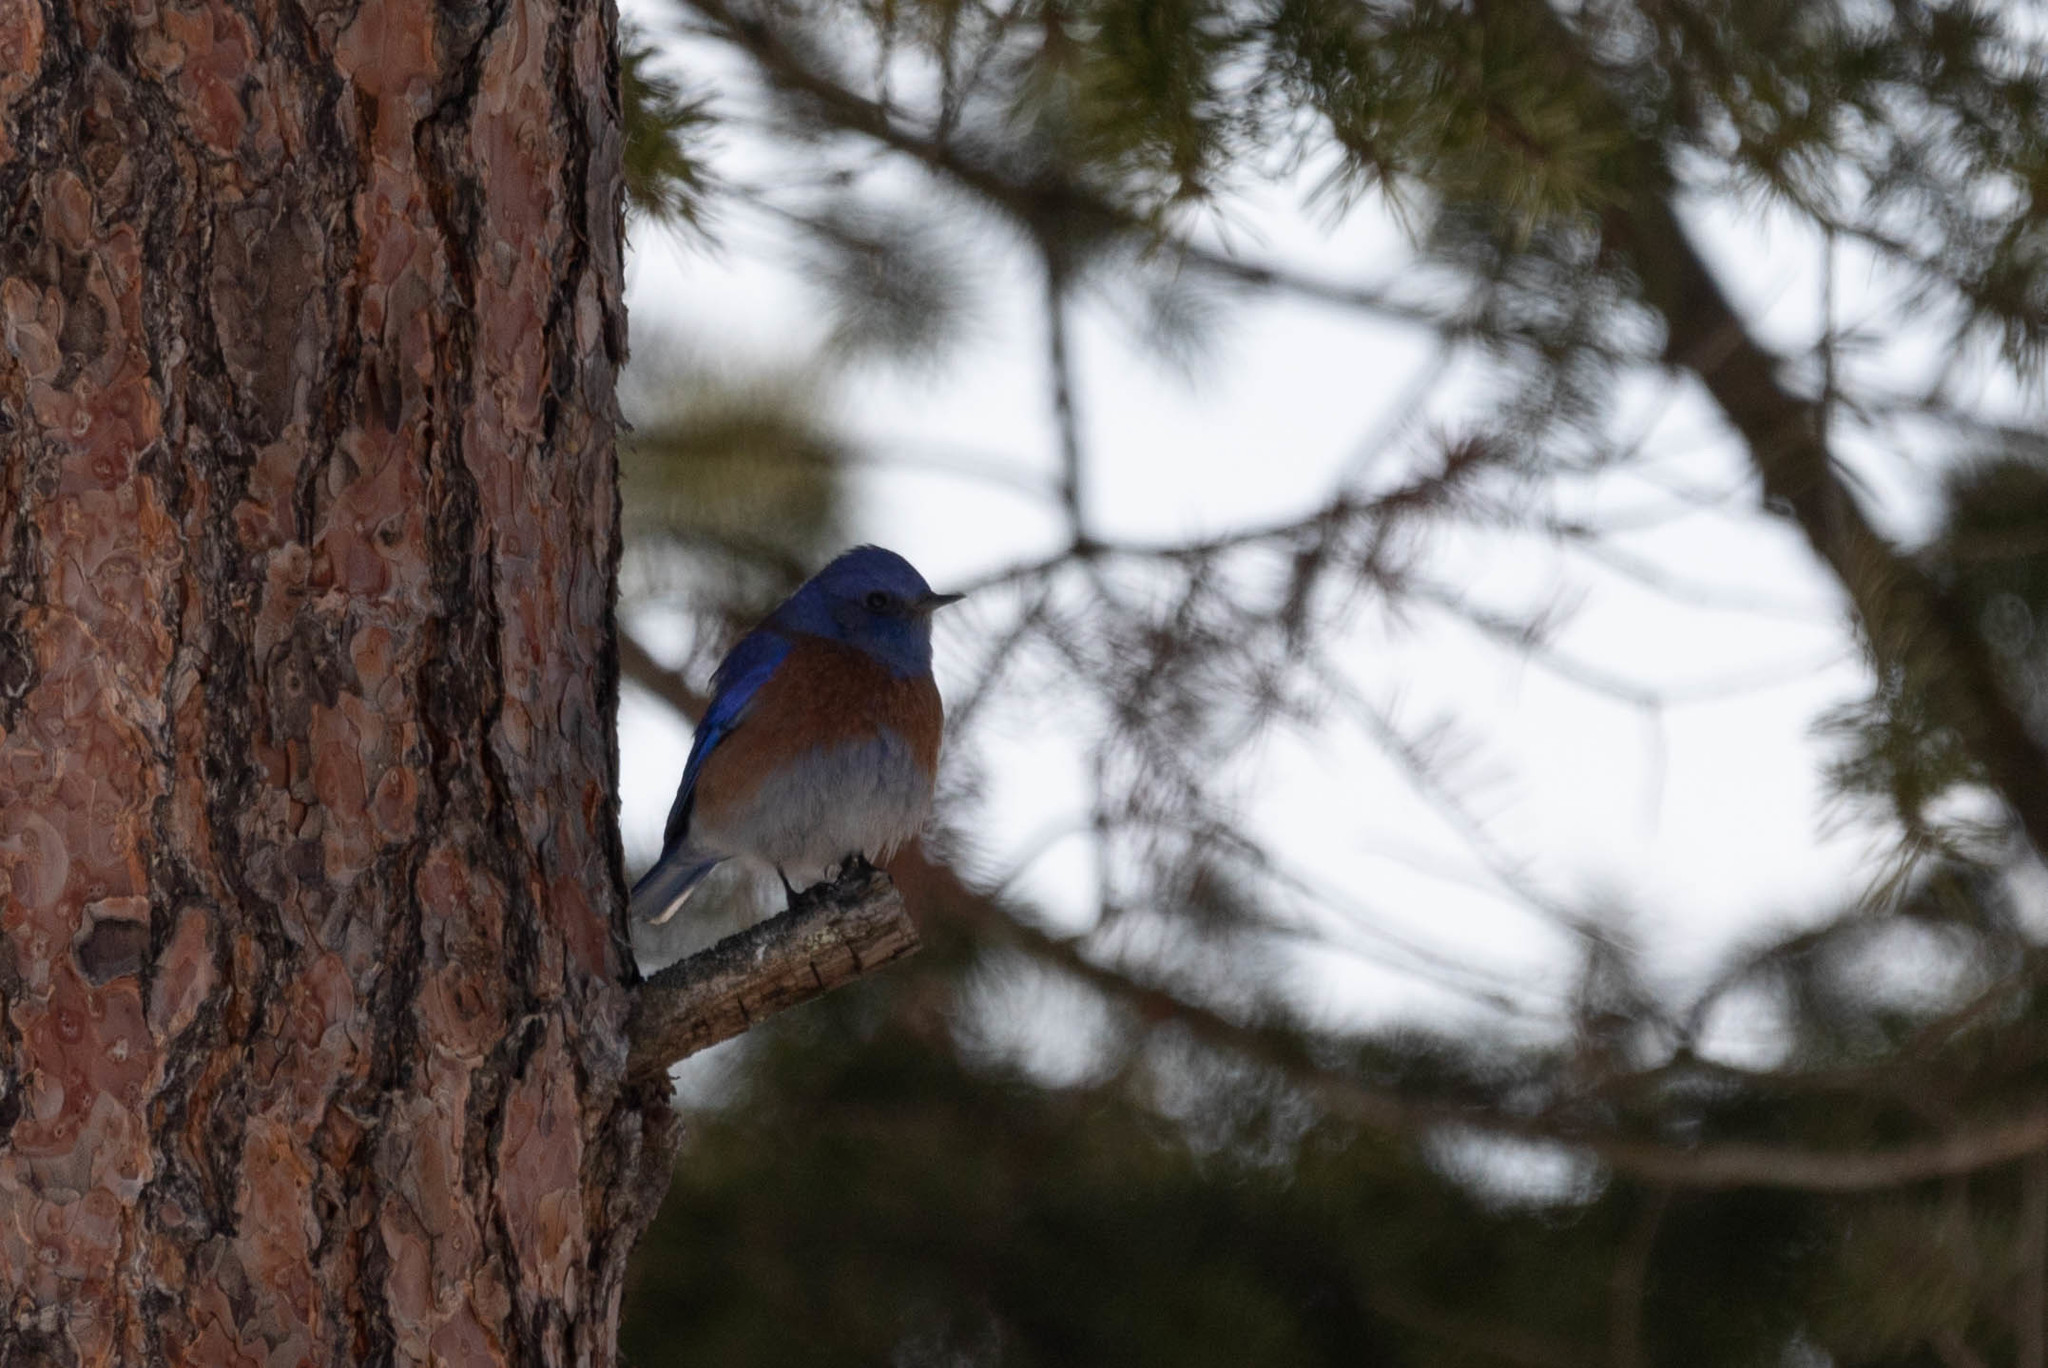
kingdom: Animalia
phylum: Chordata
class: Aves
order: Passeriformes
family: Turdidae
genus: Sialia
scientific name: Sialia mexicana
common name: Western bluebird
